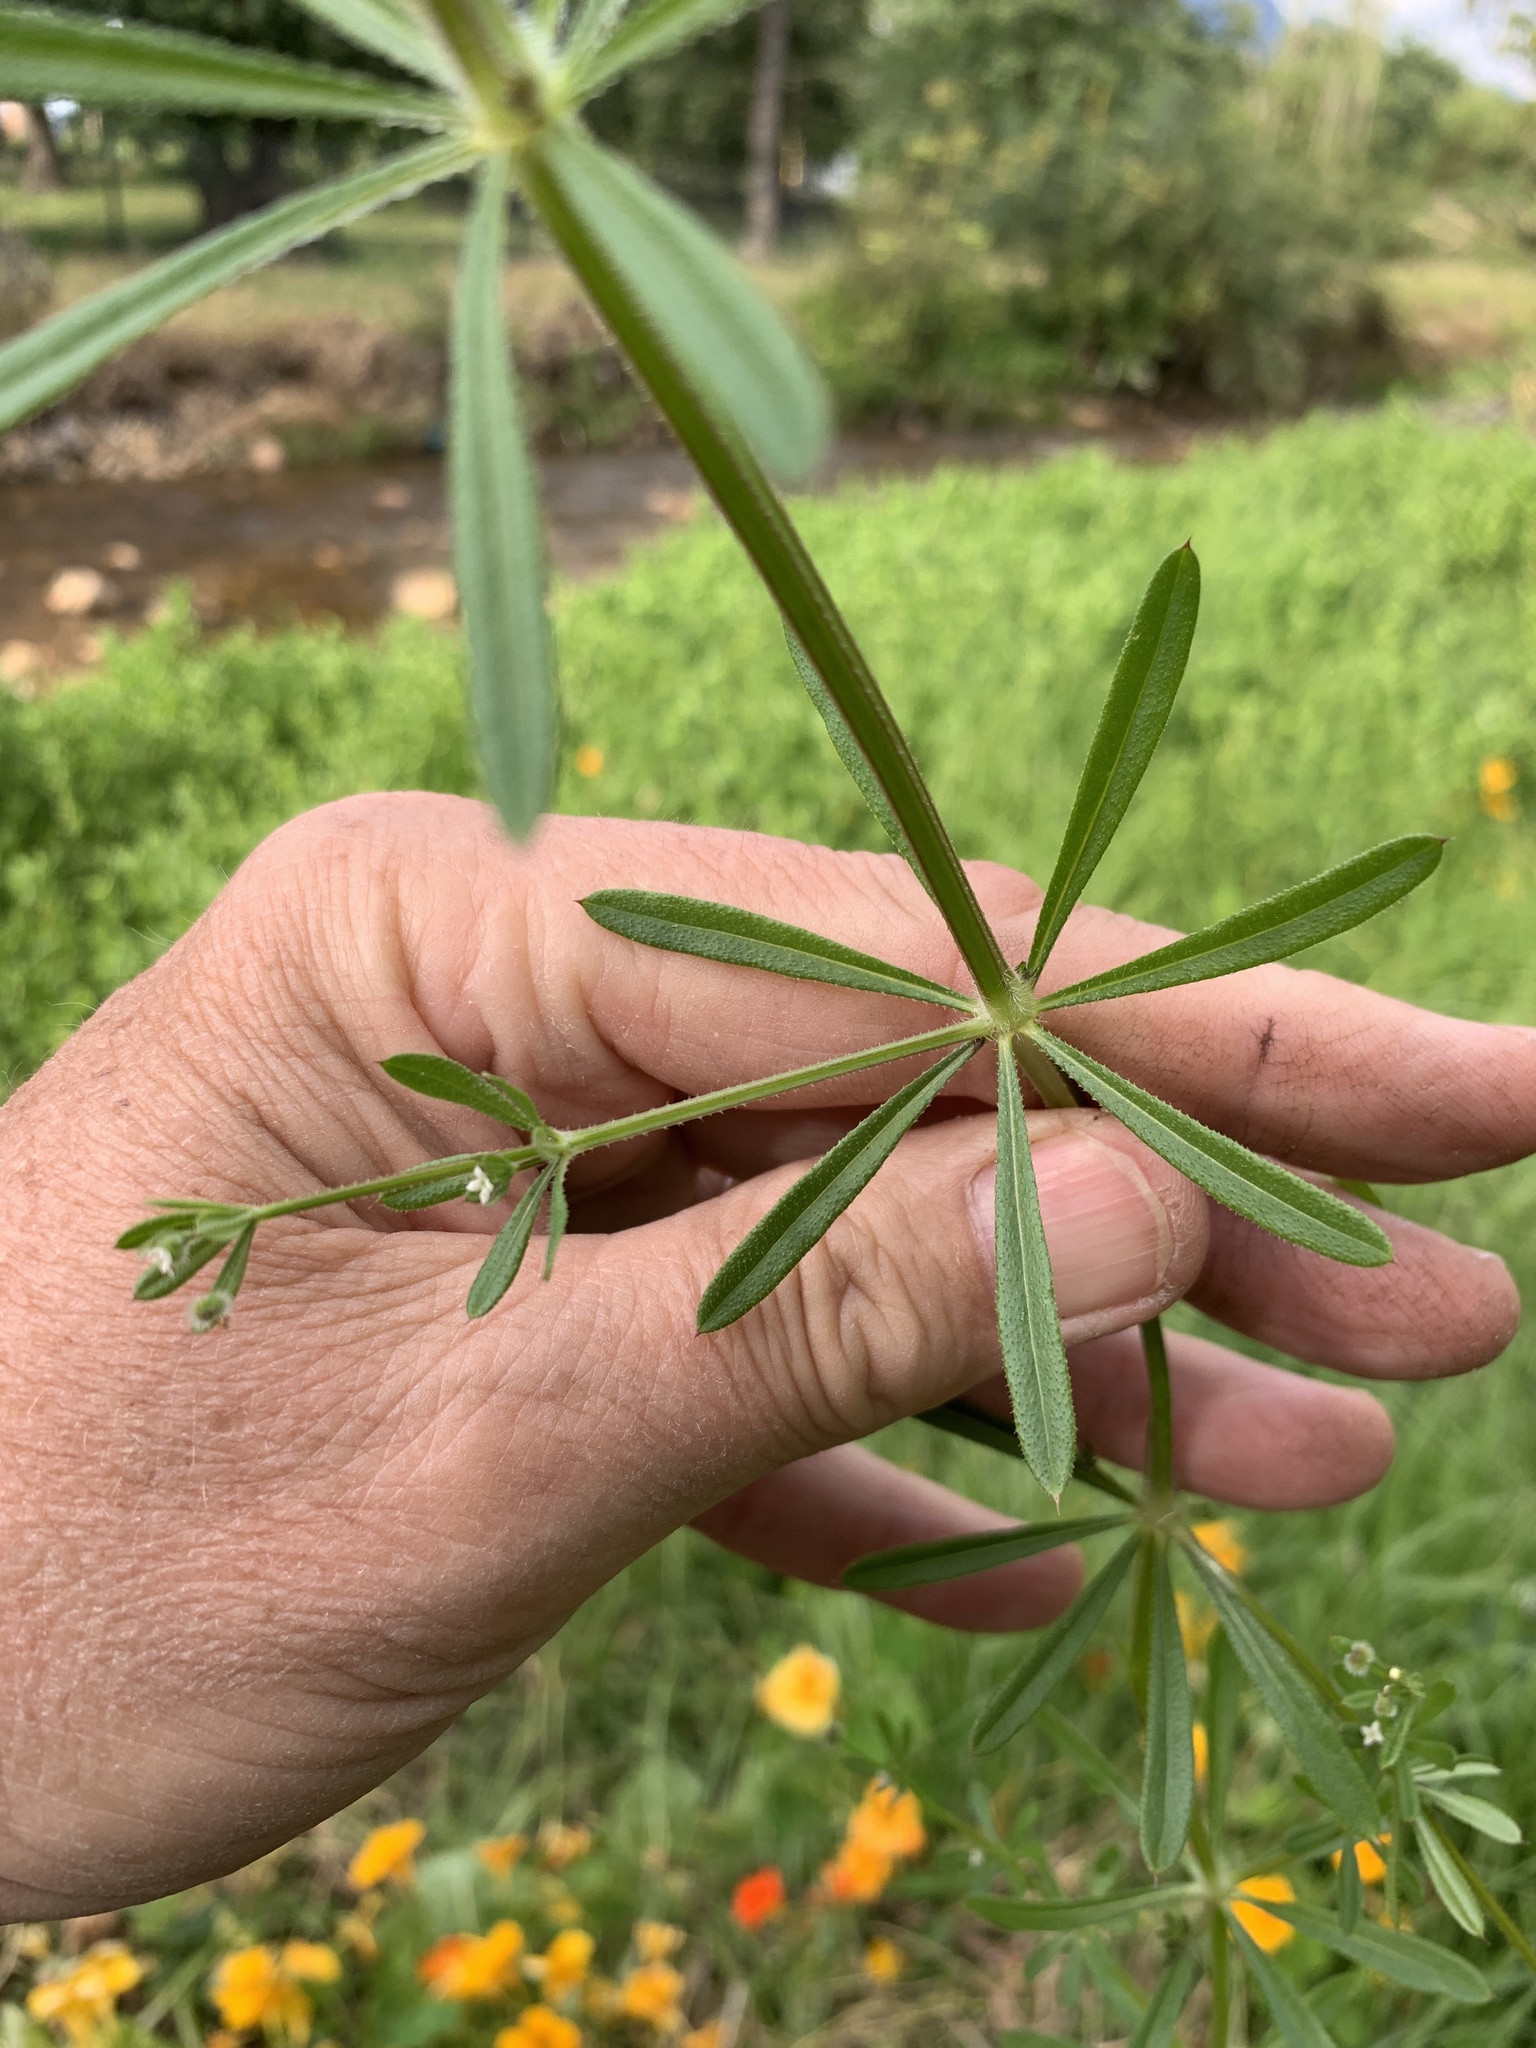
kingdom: Plantae
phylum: Tracheophyta
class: Magnoliopsida
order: Gentianales
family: Rubiaceae
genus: Galium
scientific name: Galium aparine
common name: Cleavers
